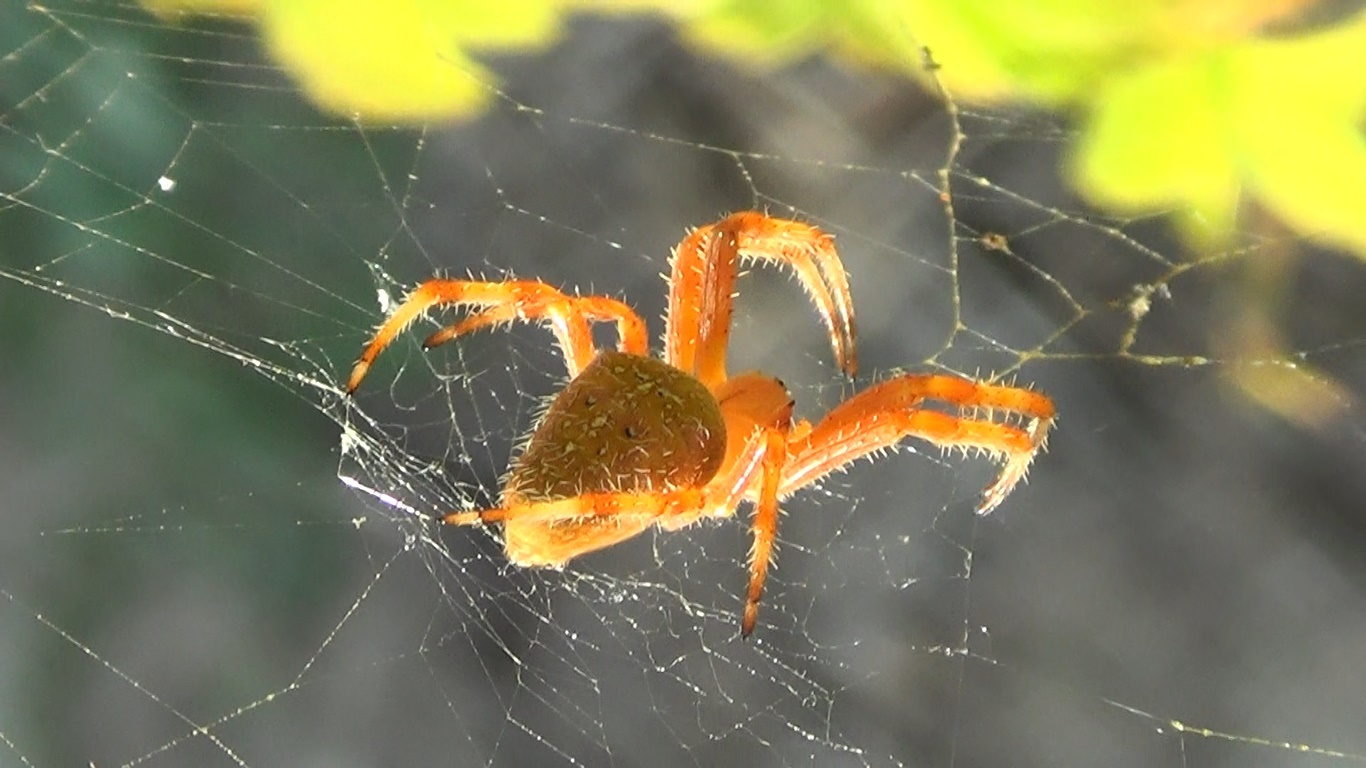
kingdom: Animalia
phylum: Arthropoda
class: Arachnida
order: Araneae
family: Araneidae
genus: Araneus
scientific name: Araneus diadematus
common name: Cross orbweaver
